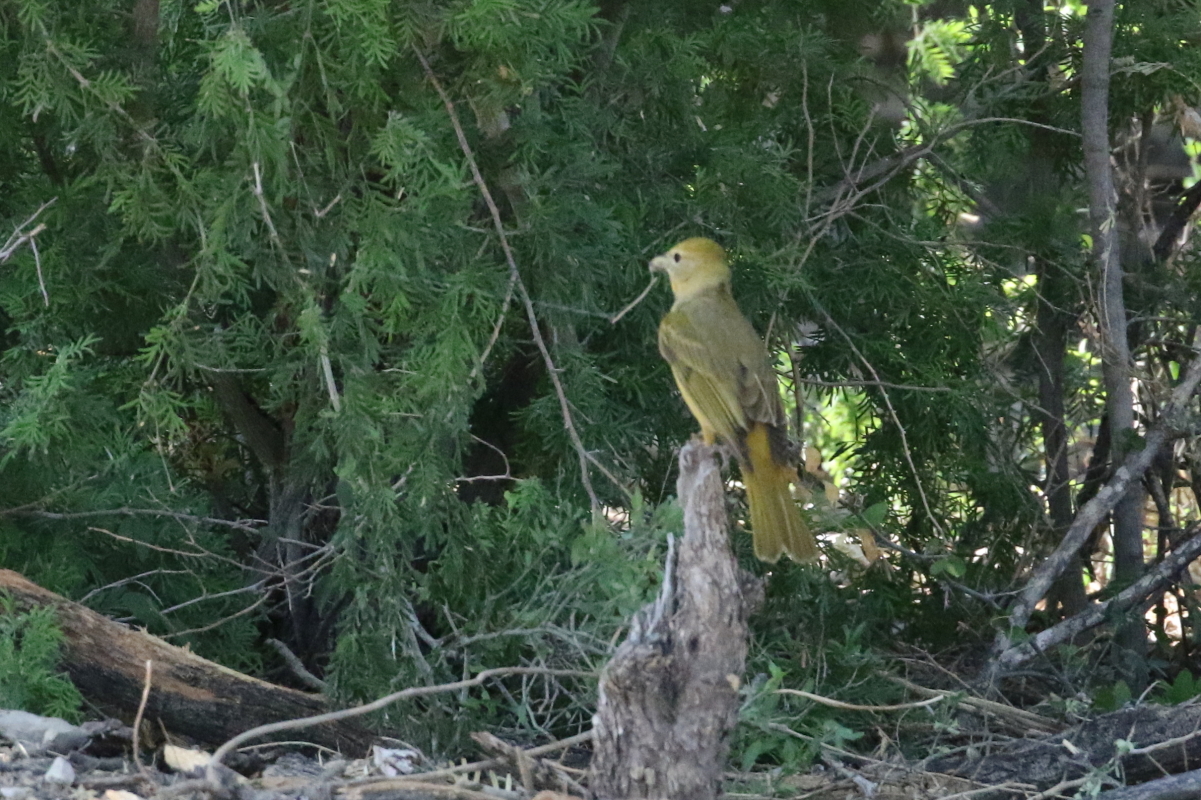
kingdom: Animalia
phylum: Chordata
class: Aves
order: Passeriformes
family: Cardinalidae
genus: Piranga
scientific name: Piranga rubra
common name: Summer tanager
